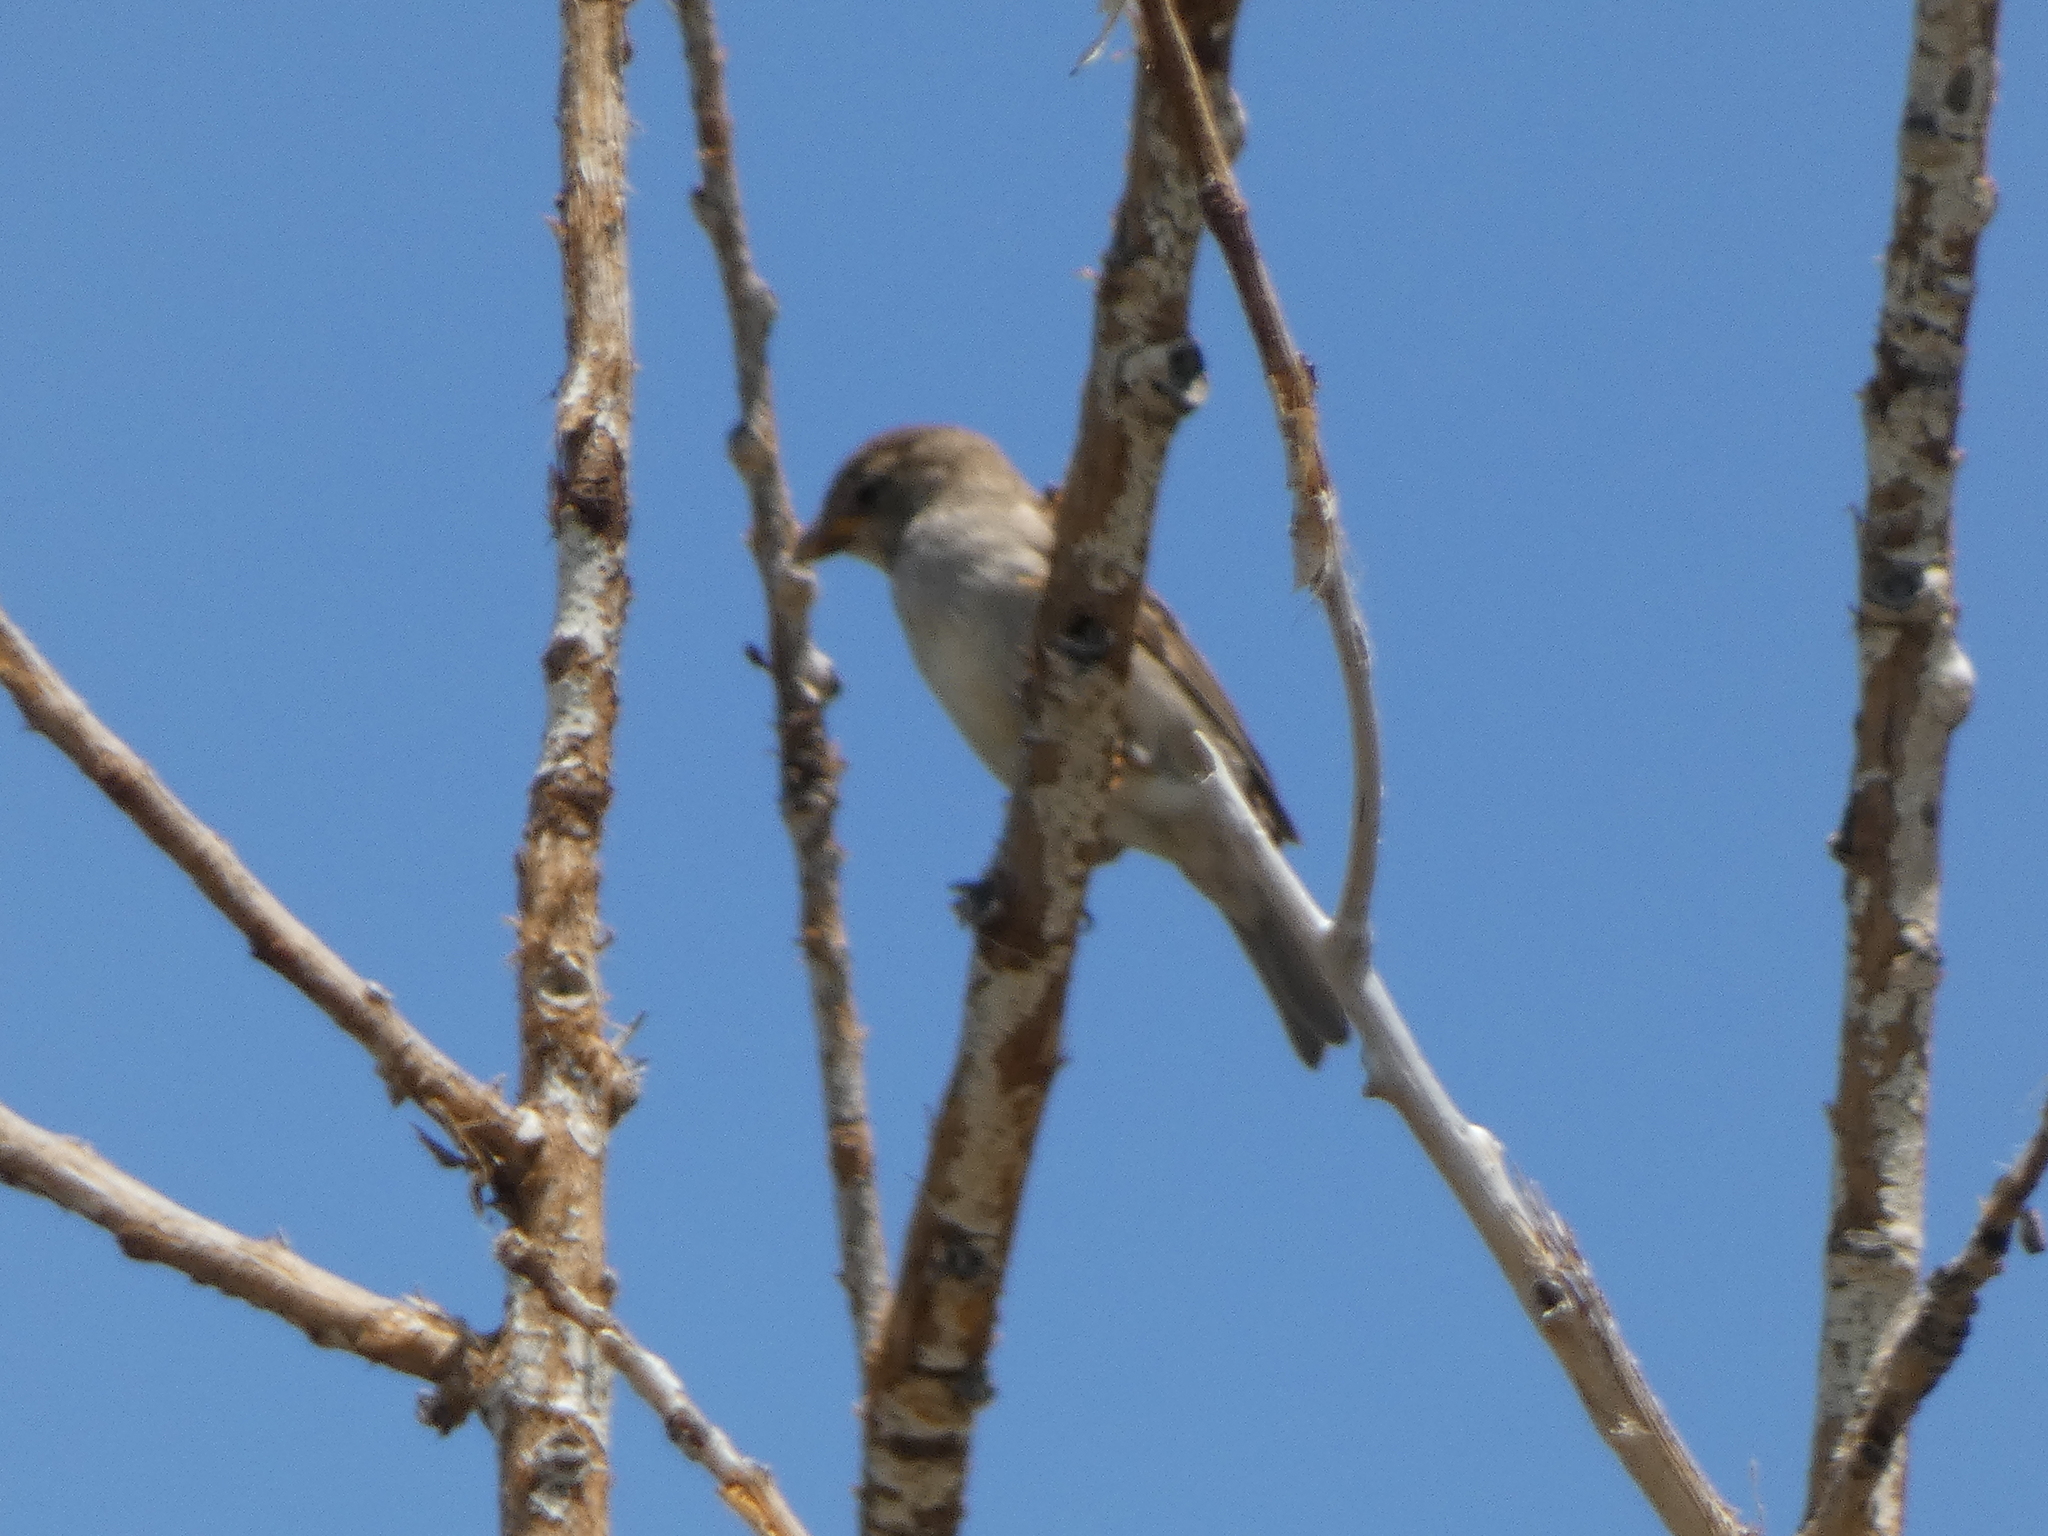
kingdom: Animalia
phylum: Chordata
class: Aves
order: Passeriformes
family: Passeridae
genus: Passer
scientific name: Passer domesticus
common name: House sparrow
